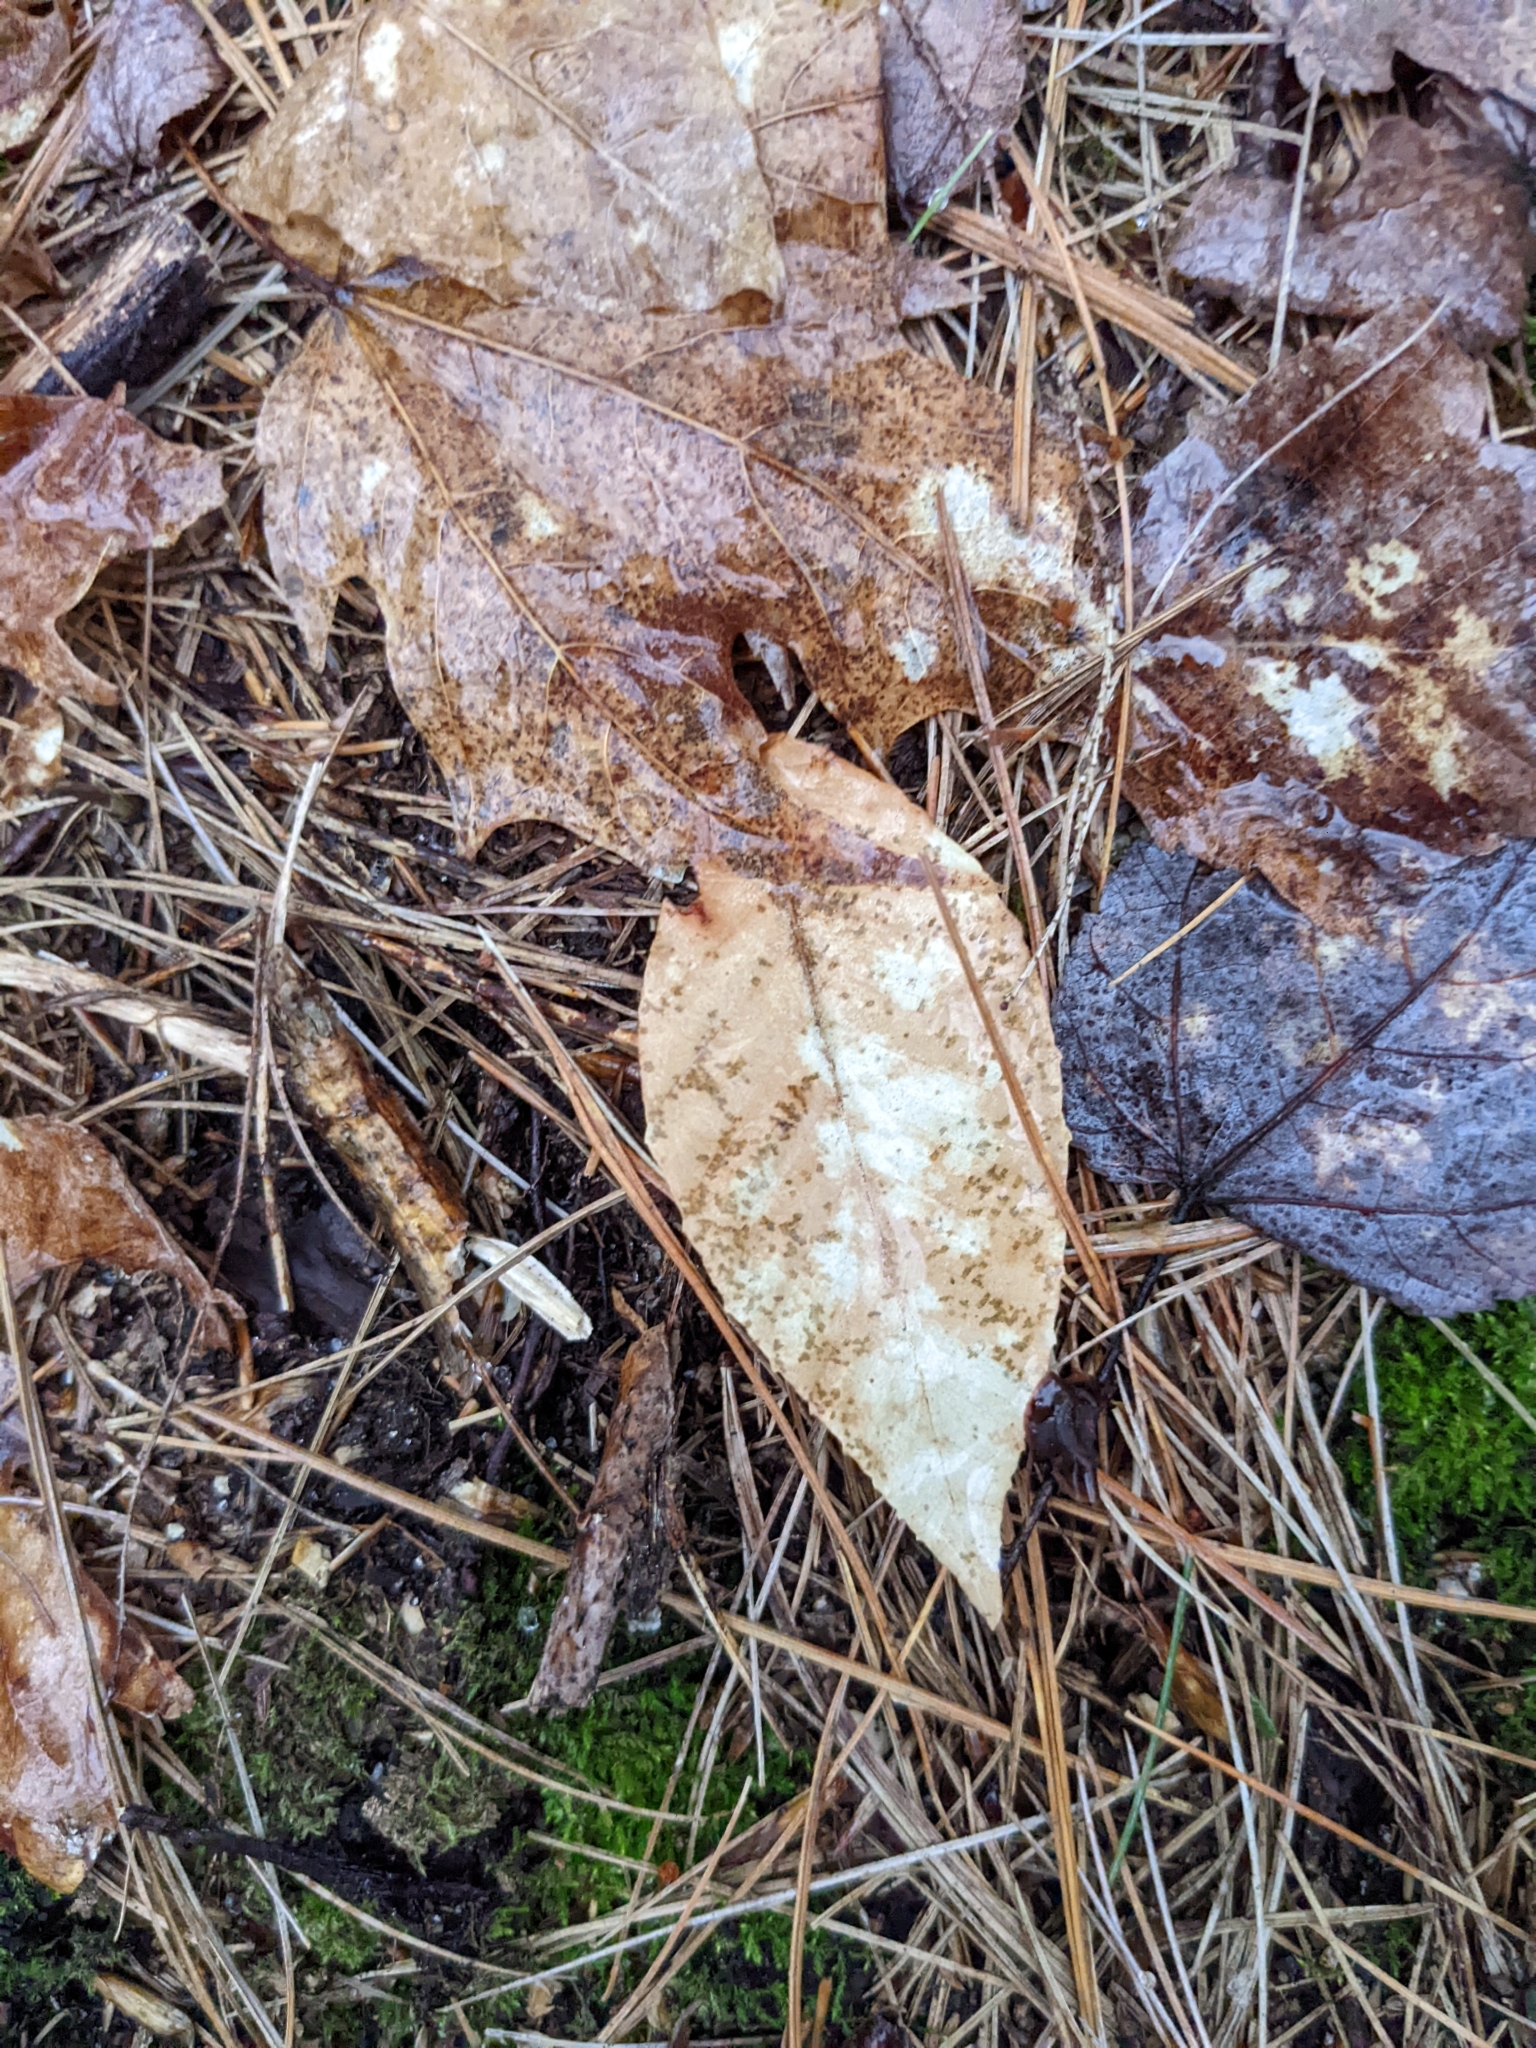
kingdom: Plantae
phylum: Tracheophyta
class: Magnoliopsida
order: Fagales
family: Fagaceae
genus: Fagus
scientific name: Fagus grandifolia
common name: American beech
